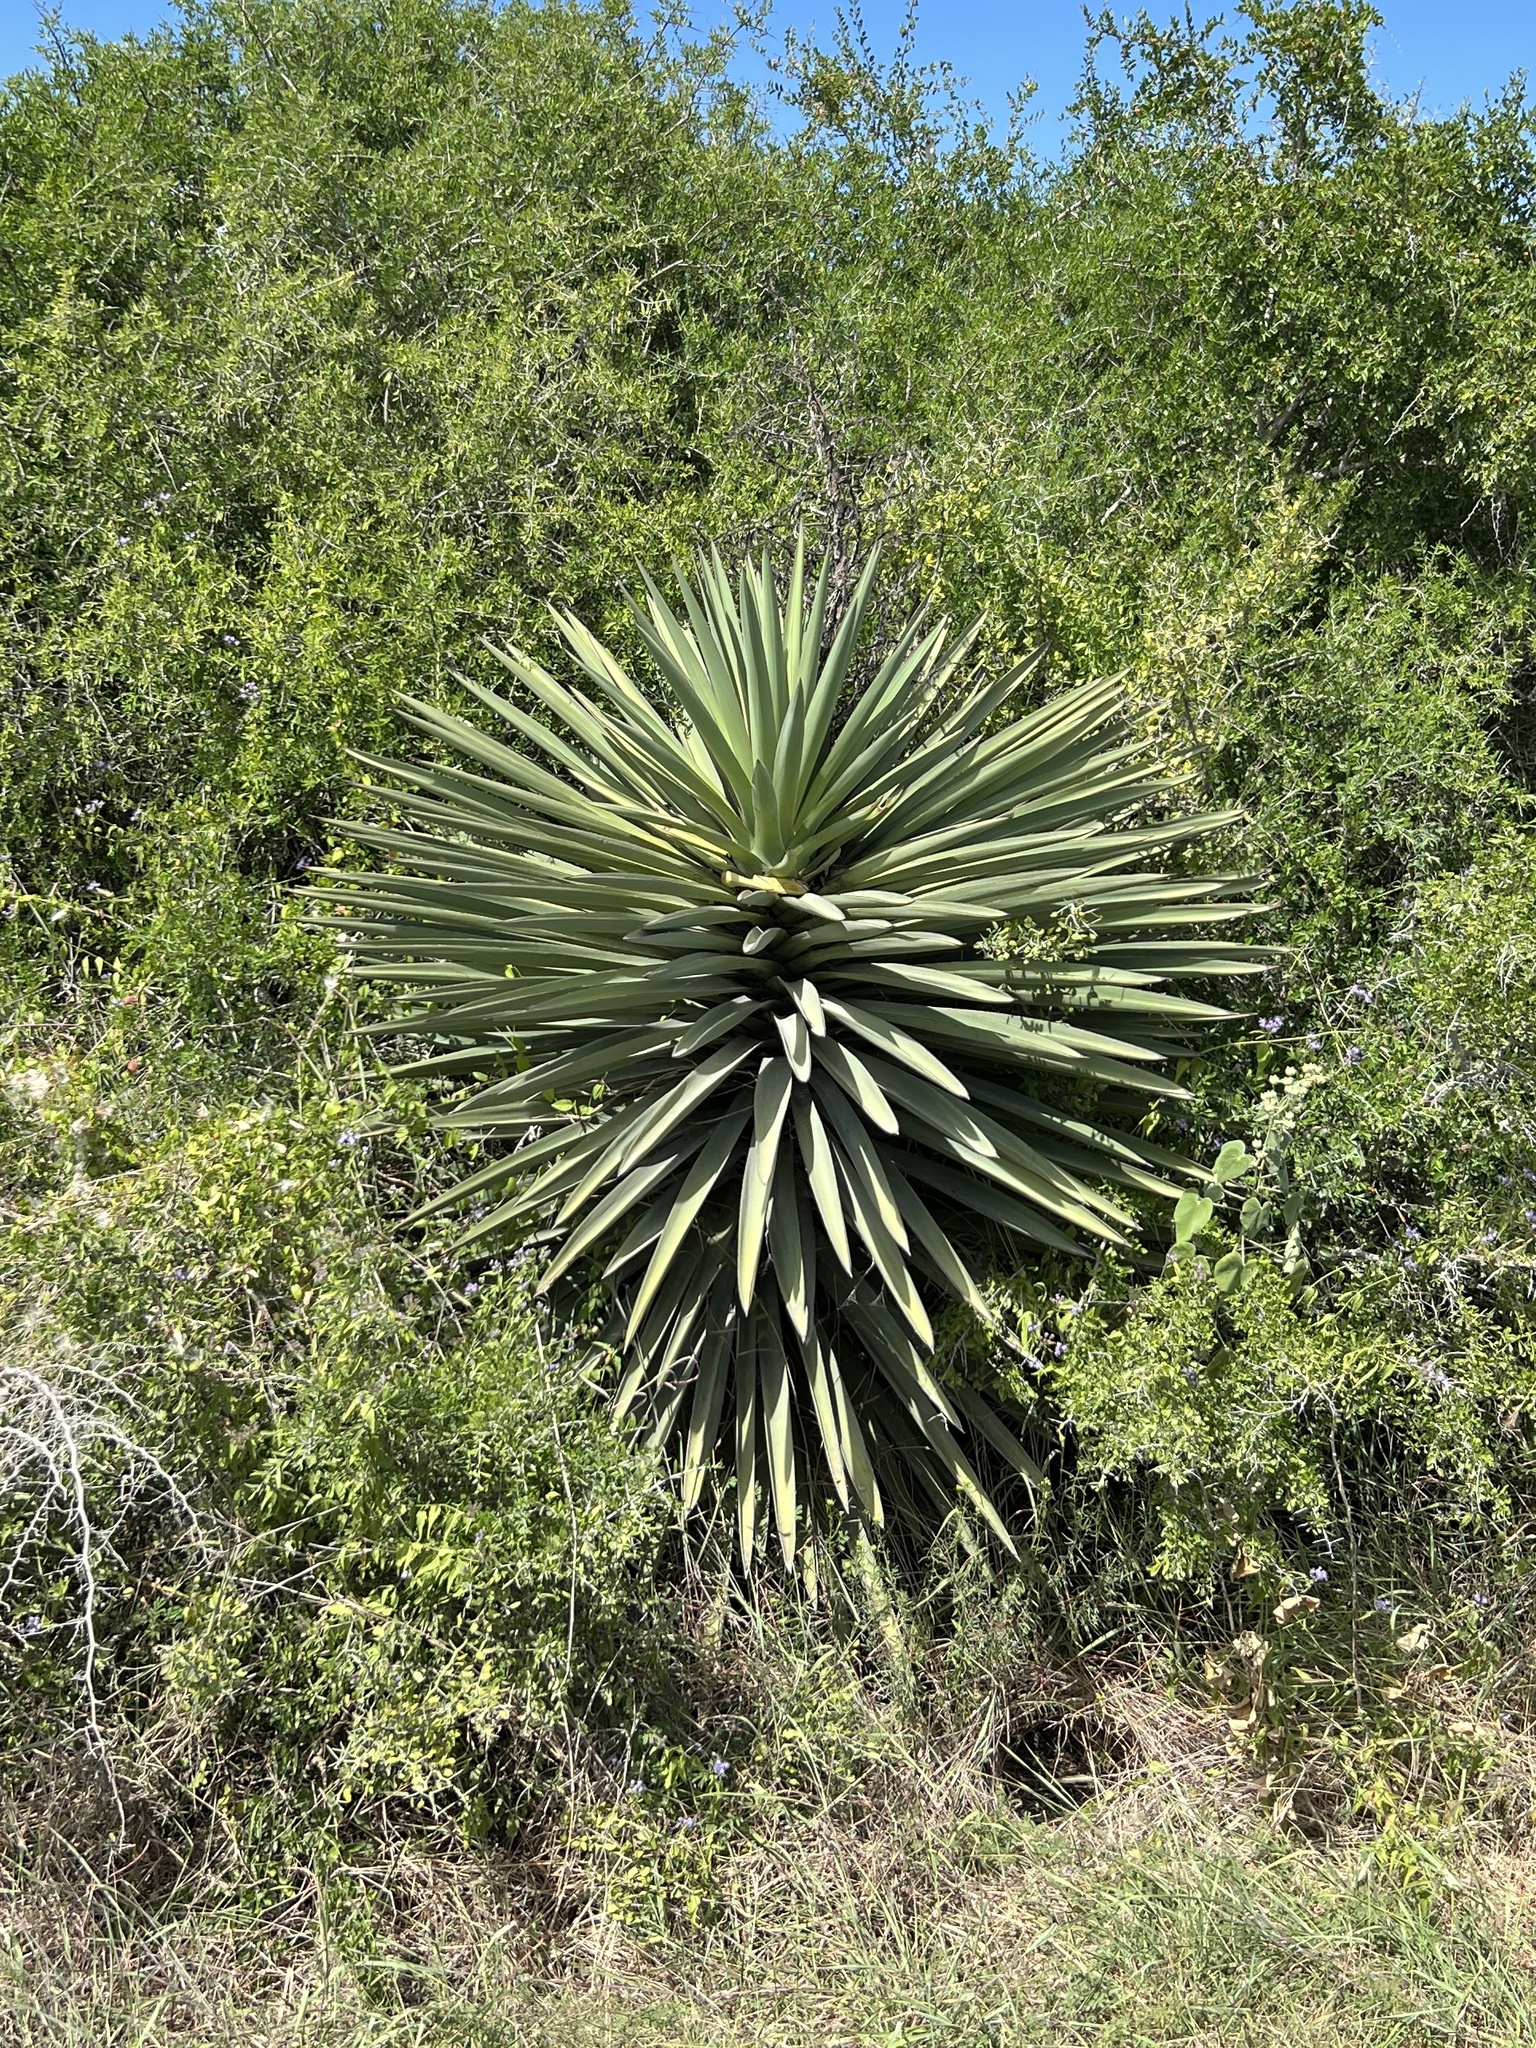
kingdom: Plantae
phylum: Tracheophyta
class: Liliopsida
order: Asparagales
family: Asparagaceae
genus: Yucca
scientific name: Yucca treculiana
